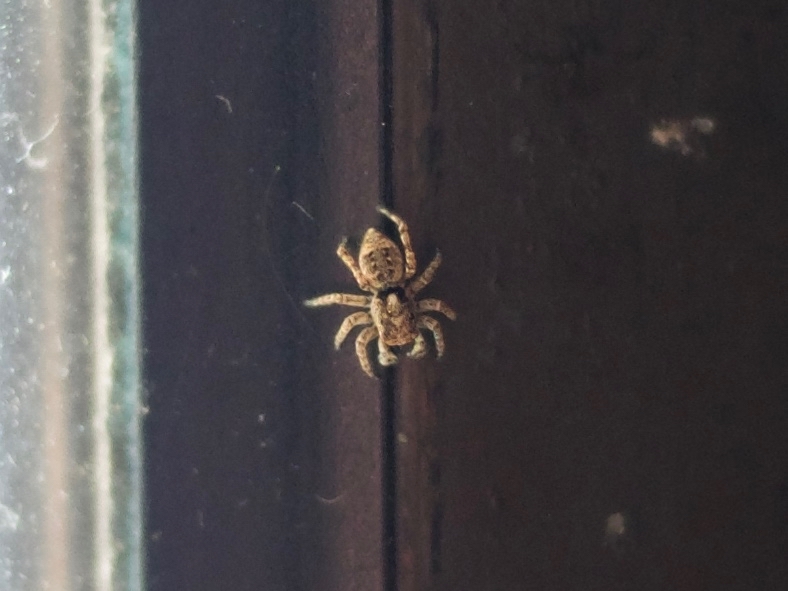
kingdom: Animalia
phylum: Arthropoda
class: Arachnida
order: Araneae
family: Salticidae
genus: Attulus
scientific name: Attulus fasciger
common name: Asiatic wall jumping spider
